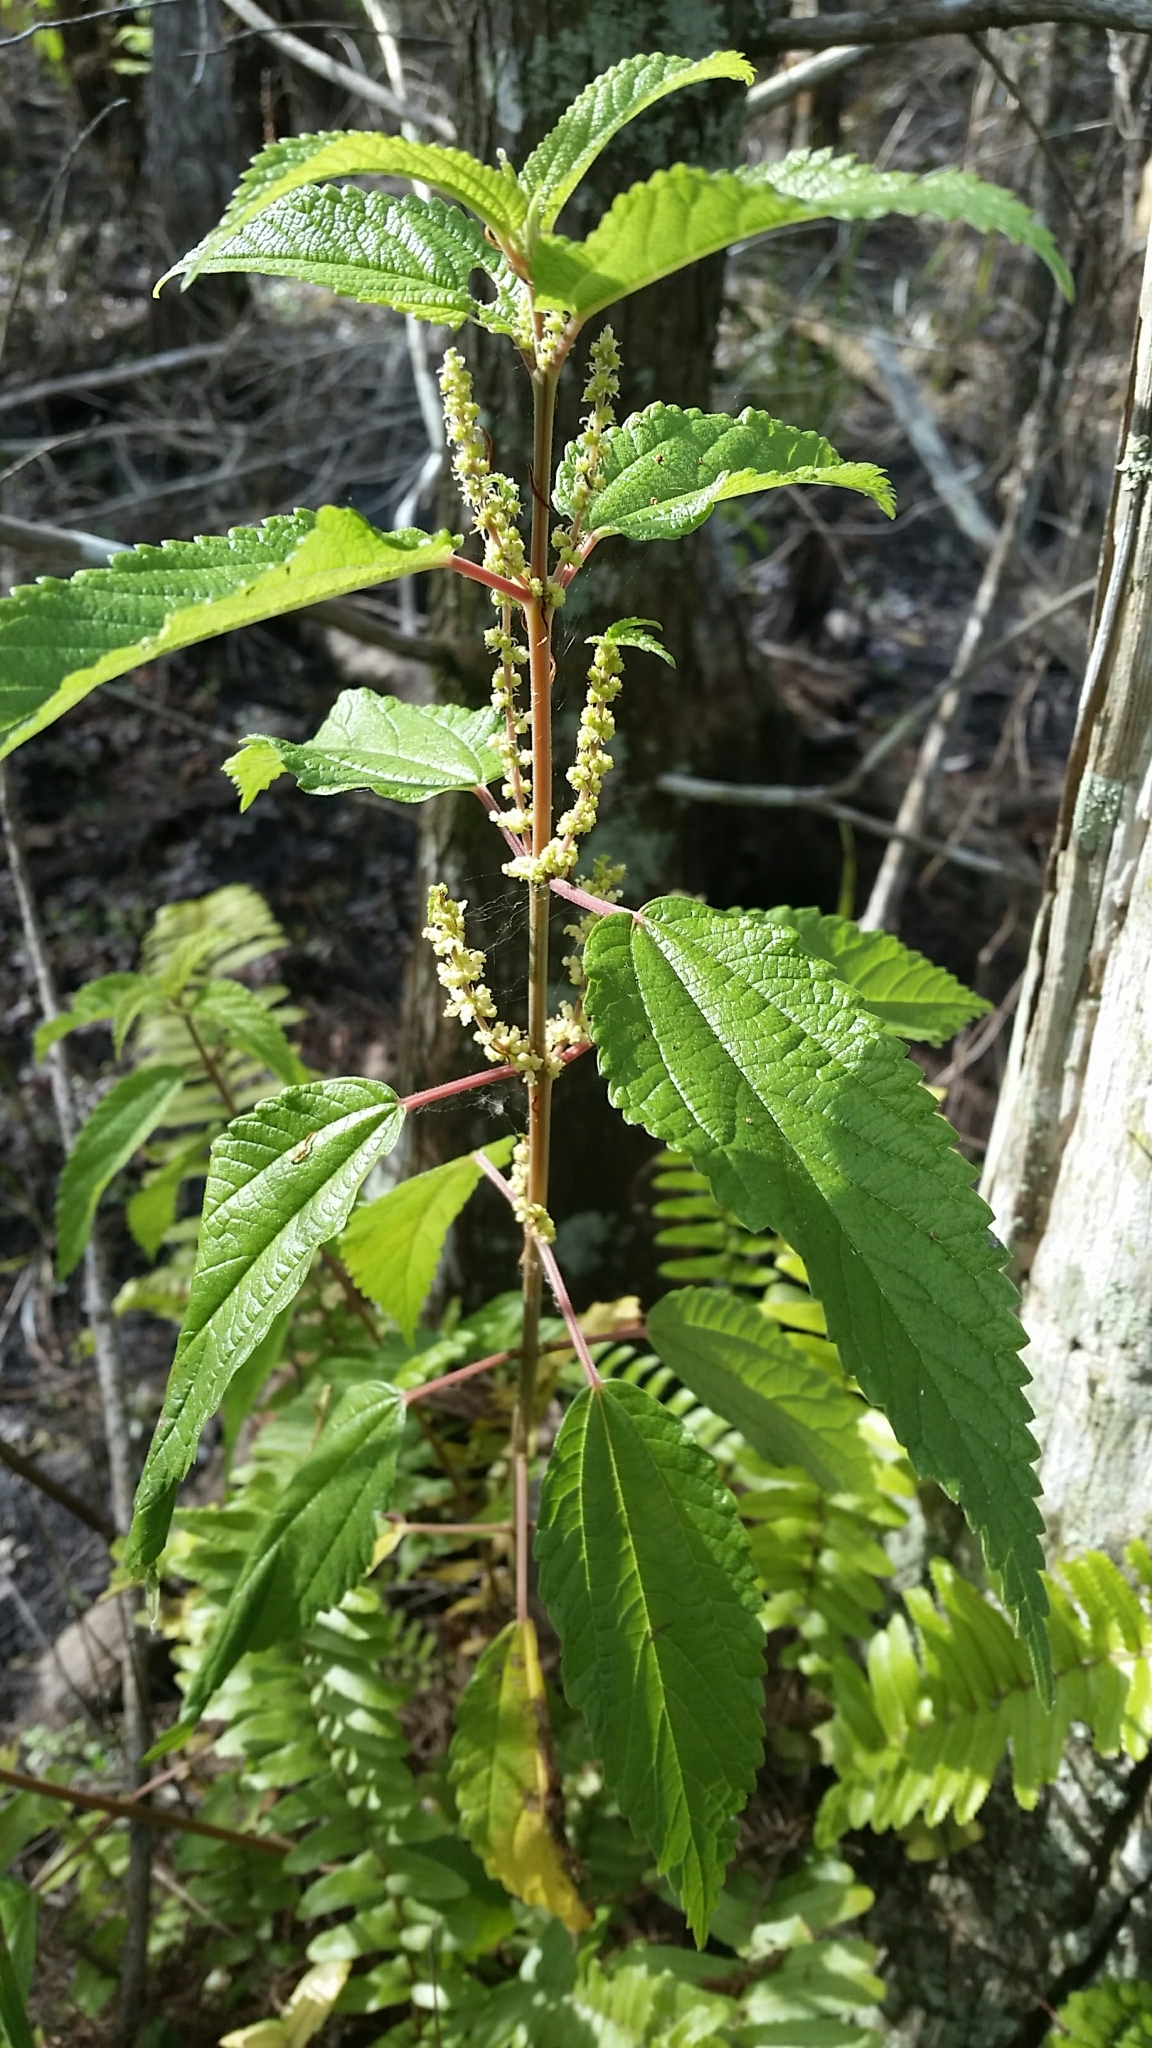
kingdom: Plantae
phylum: Tracheophyta
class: Magnoliopsida
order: Rosales
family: Urticaceae
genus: Boehmeria
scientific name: Boehmeria cylindrica
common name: Bog-hemp
